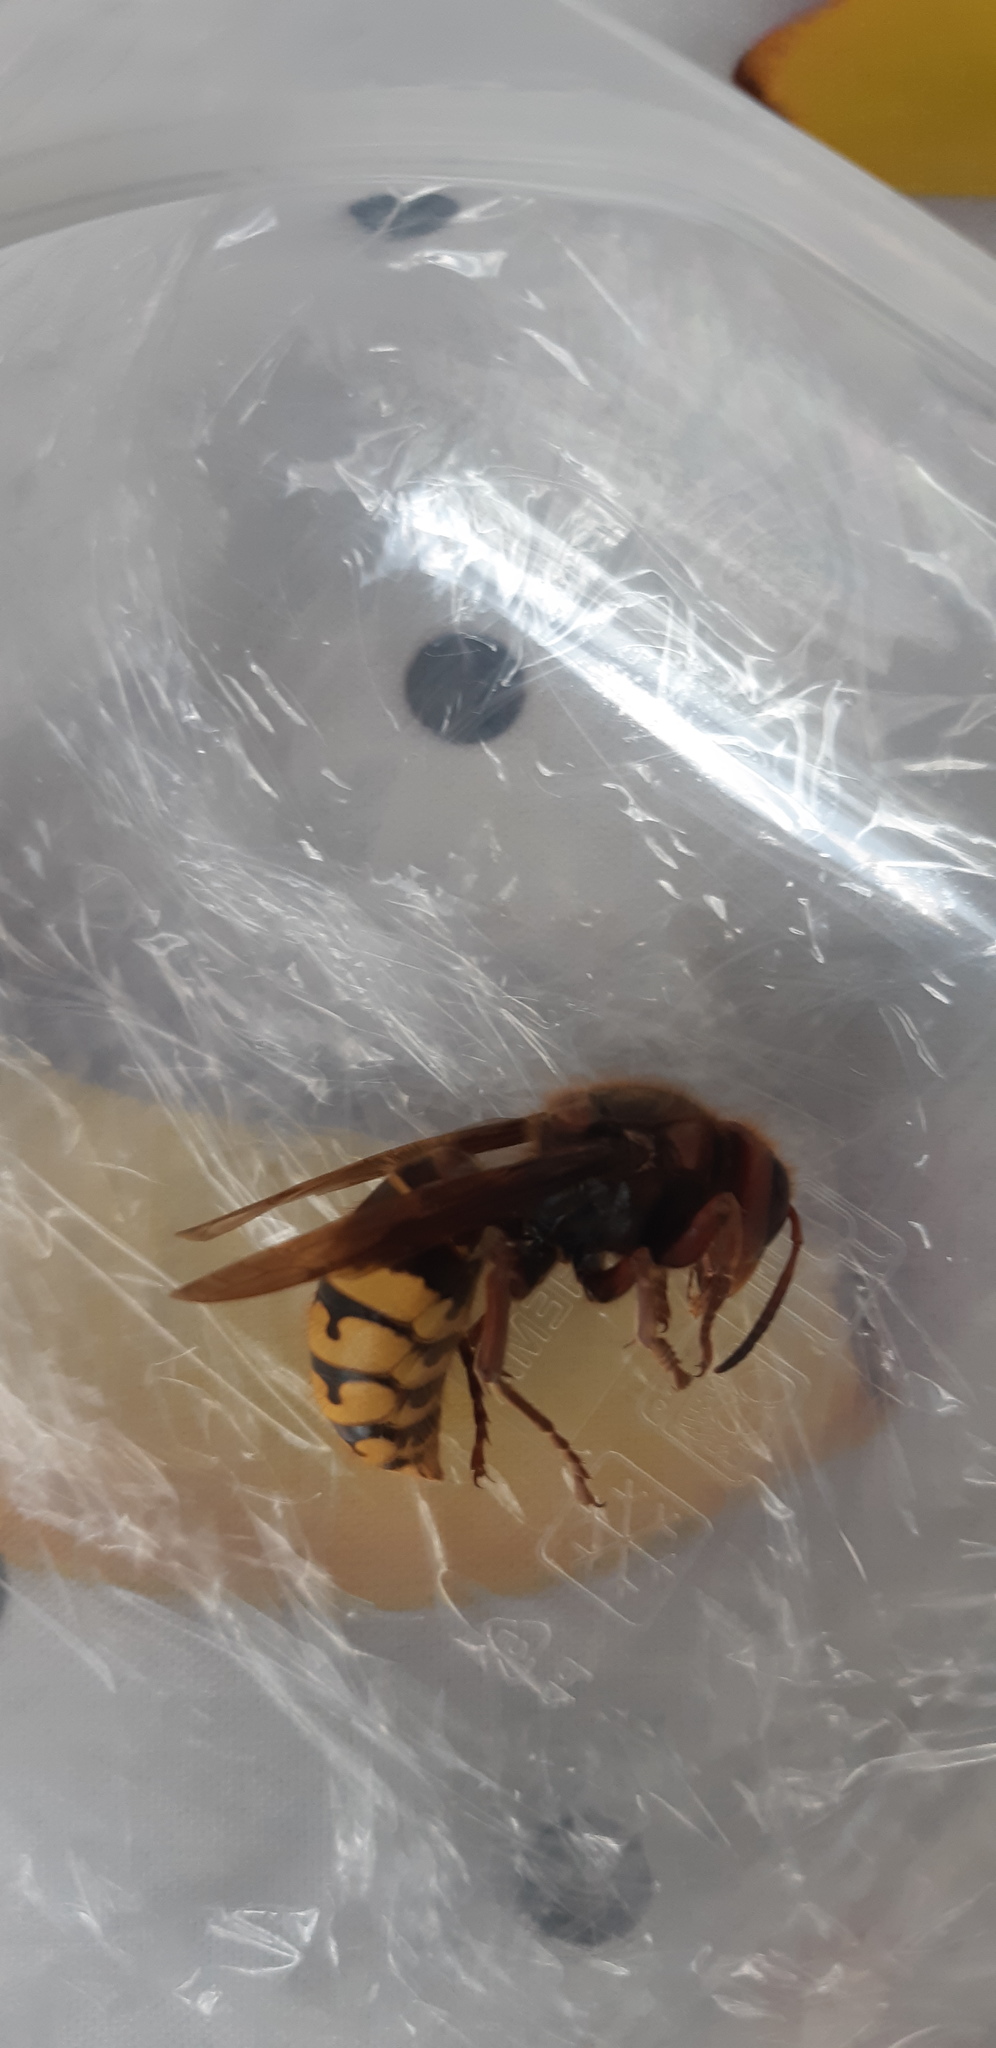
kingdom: Animalia
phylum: Arthropoda
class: Insecta
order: Hymenoptera
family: Vespidae
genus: Vespa
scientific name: Vespa crabro
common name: Hornet
